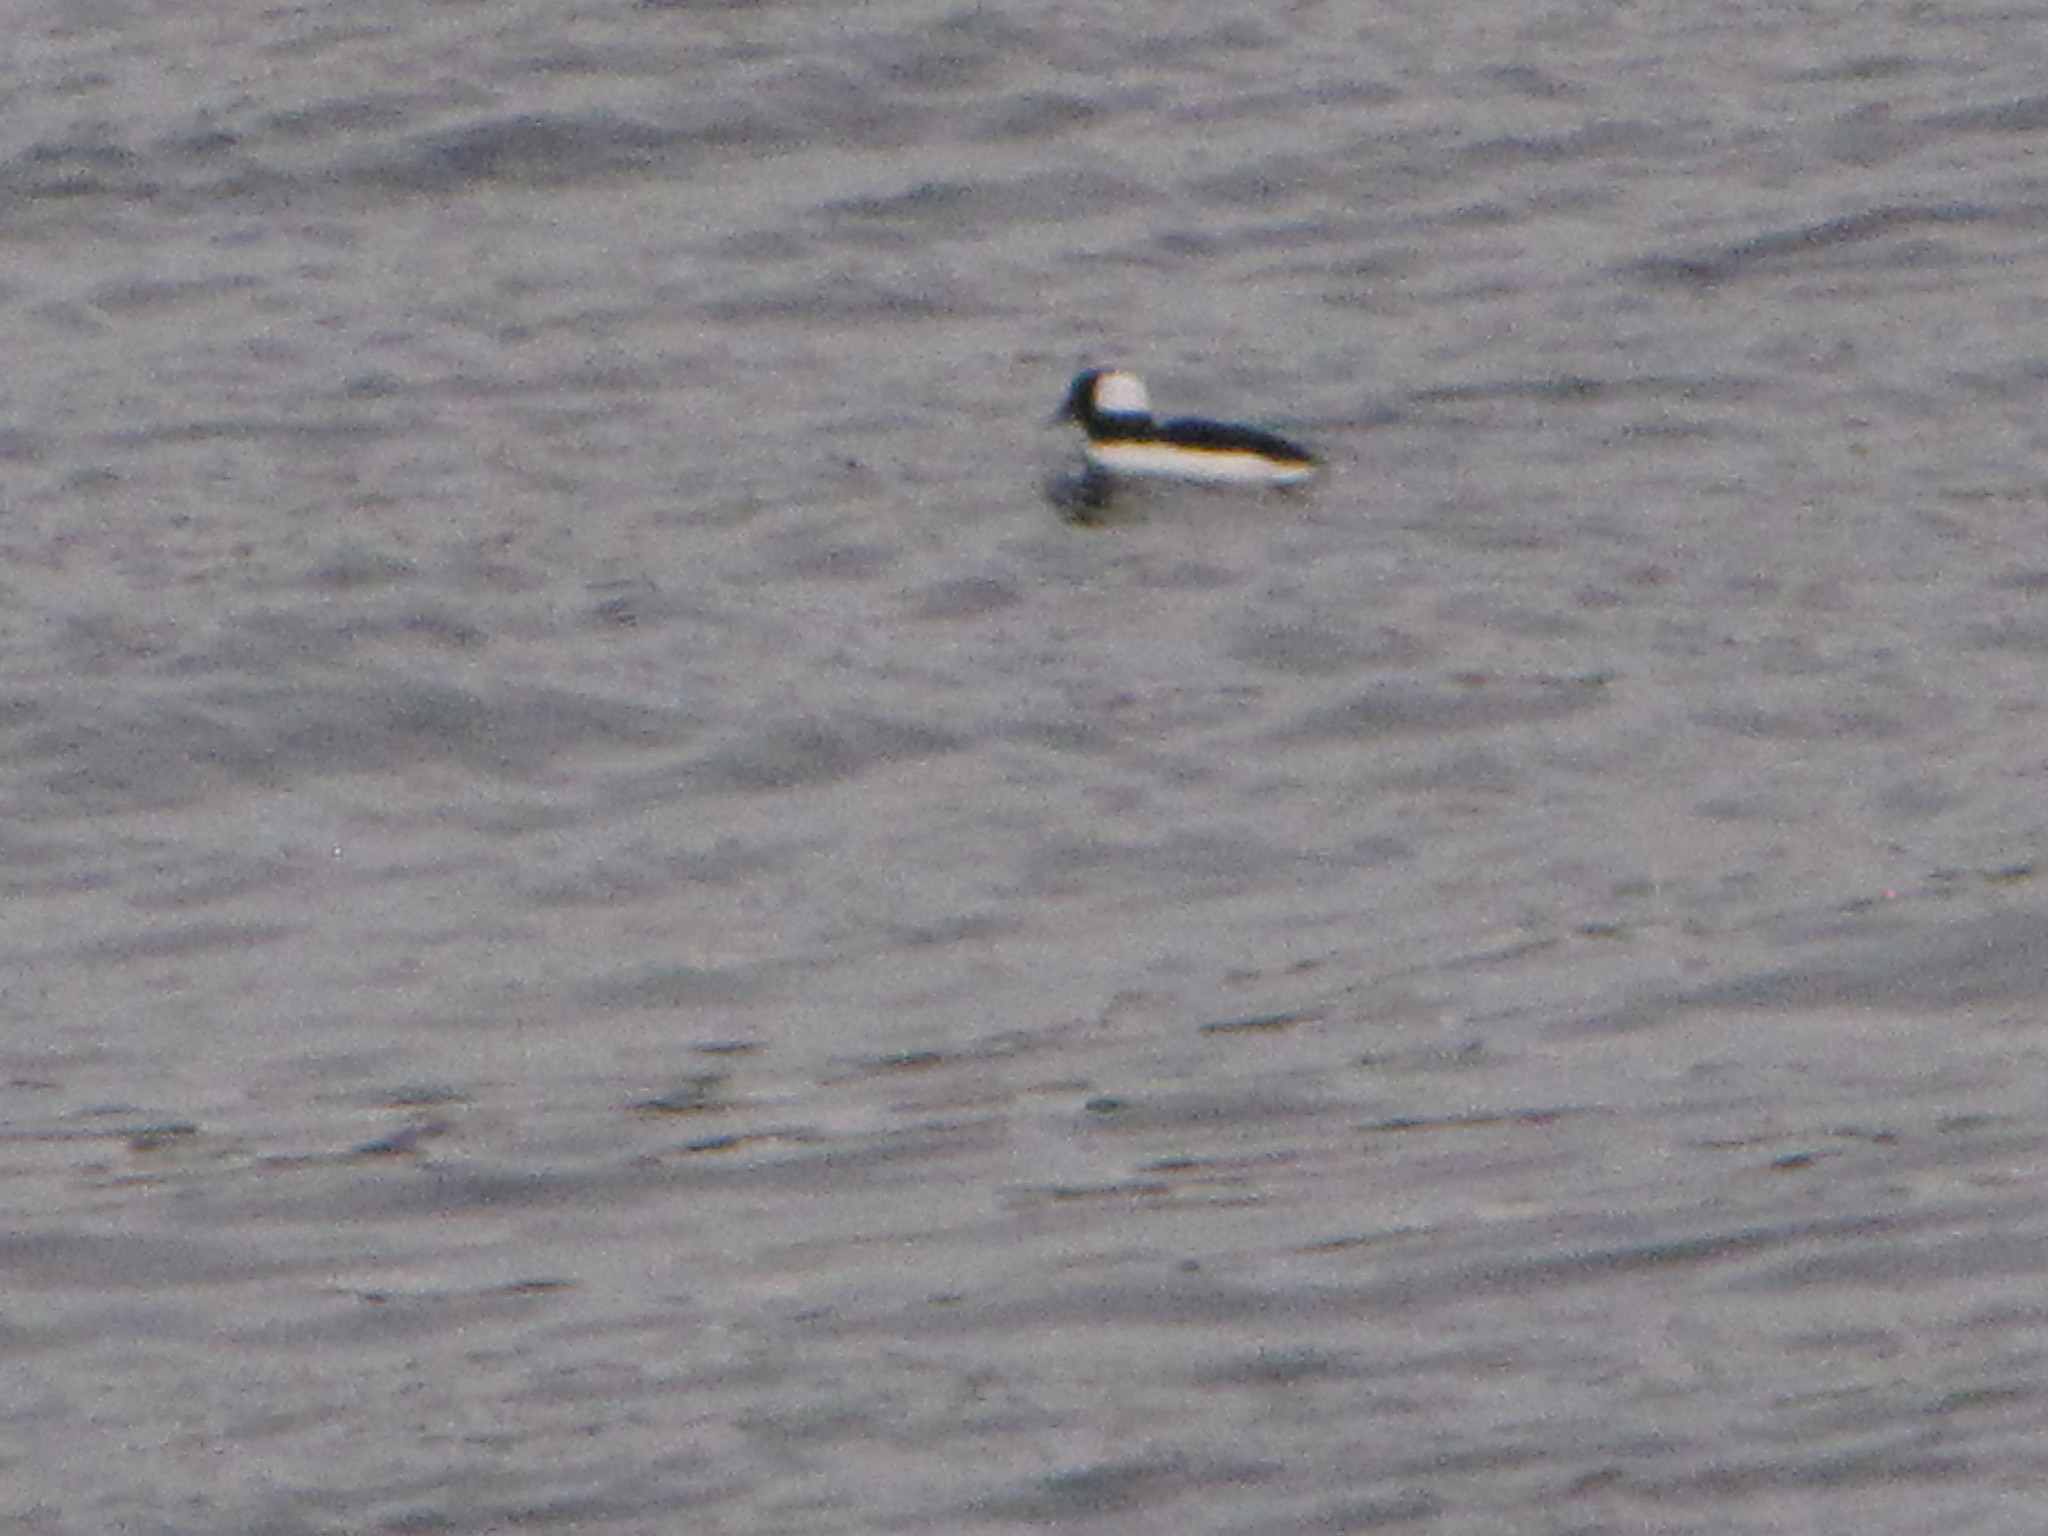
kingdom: Animalia
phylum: Chordata
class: Aves
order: Anseriformes
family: Anatidae
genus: Bucephala
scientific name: Bucephala albeola
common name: Bufflehead
